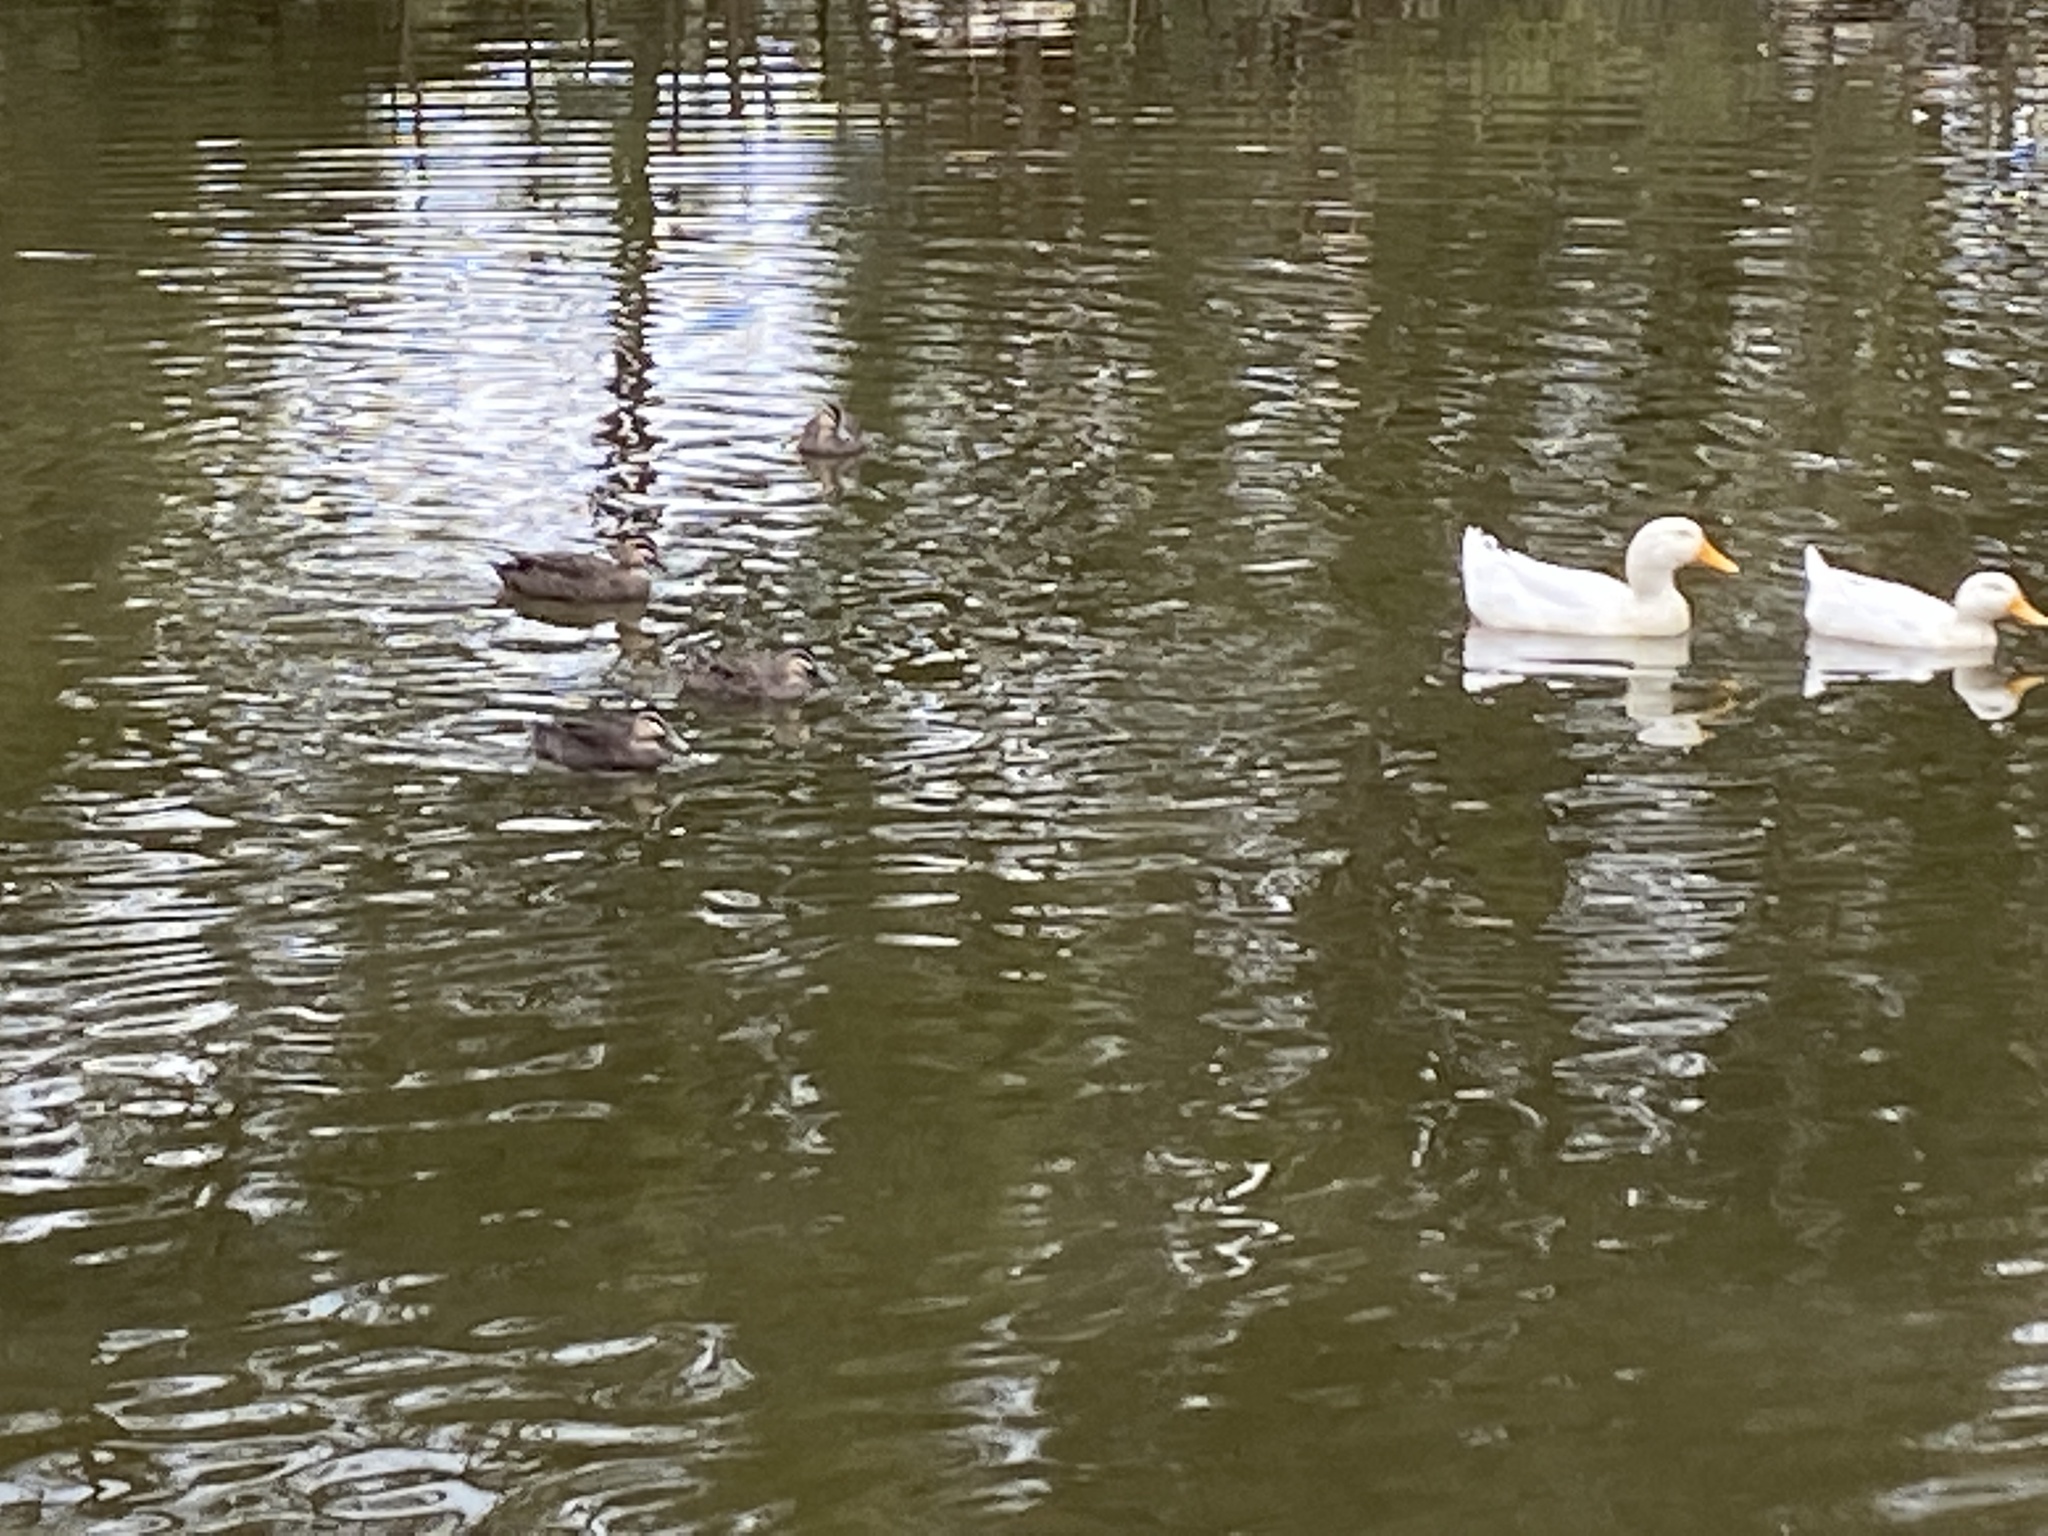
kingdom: Animalia
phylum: Chordata
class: Aves
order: Anseriformes
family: Anatidae
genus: Anas
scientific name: Anas superciliosa
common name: Pacific black duck
